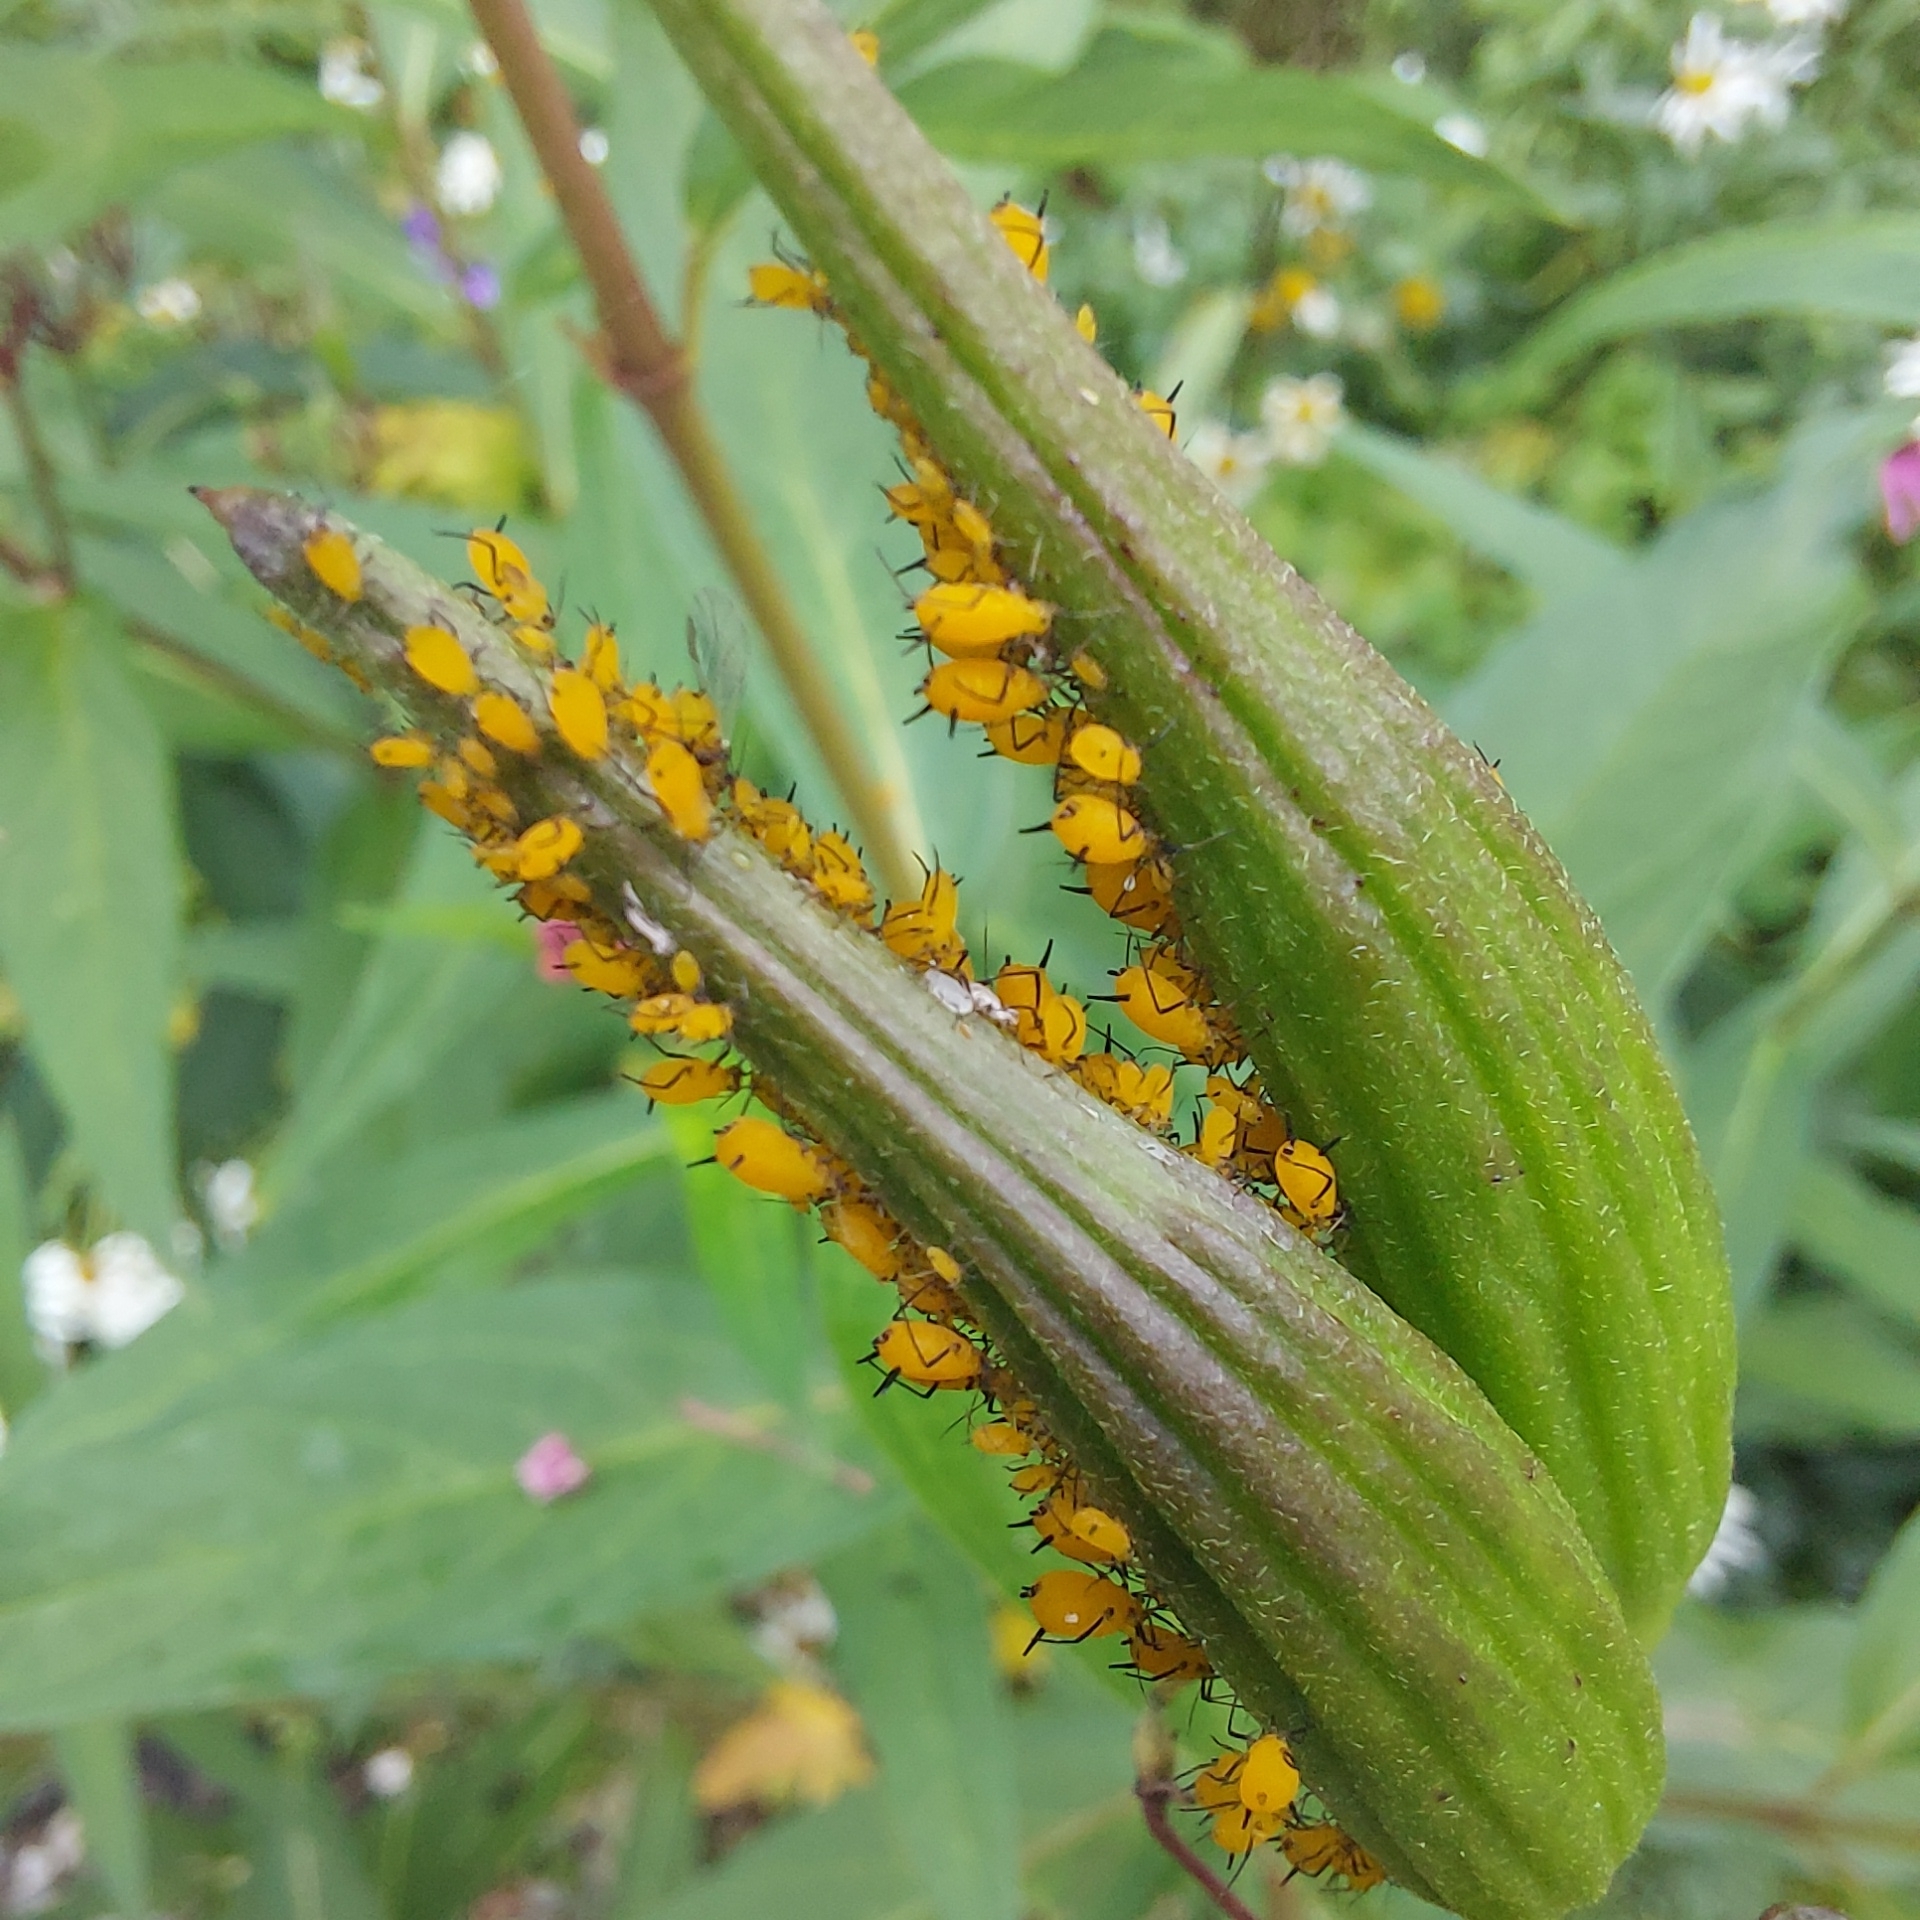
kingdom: Animalia
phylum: Arthropoda
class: Insecta
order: Hemiptera
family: Aphididae
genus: Aphis
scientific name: Aphis nerii
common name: Oleander aphid
